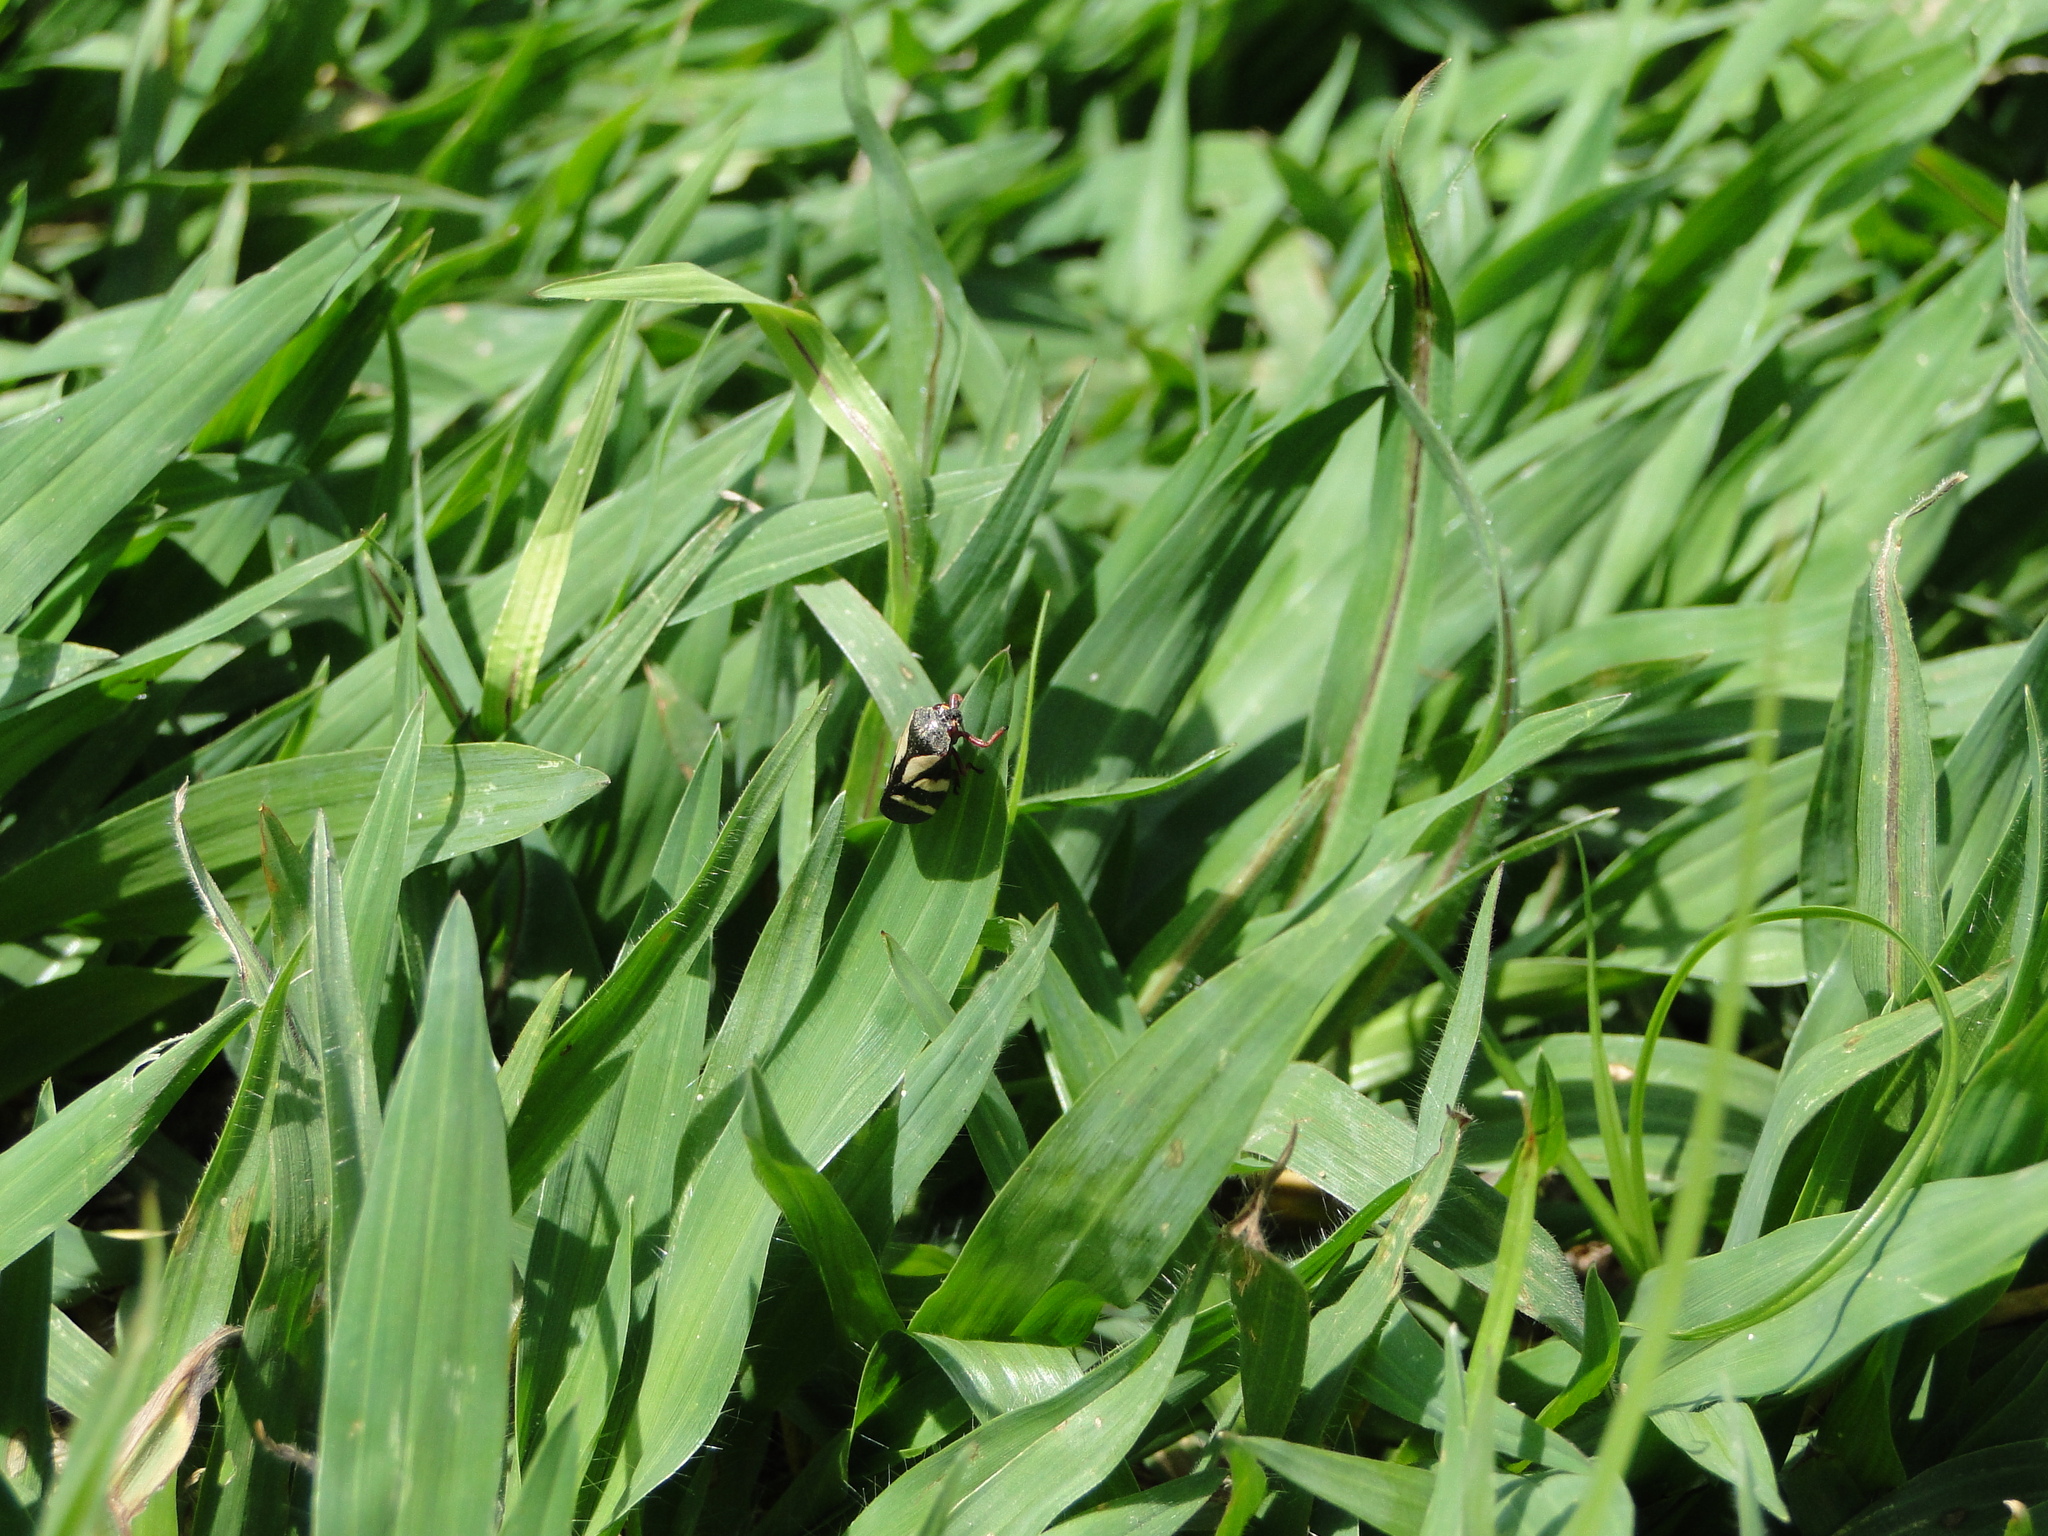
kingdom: Animalia
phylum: Arthropoda
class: Insecta
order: Hemiptera
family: Cercopidae
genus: Deois
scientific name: Deois flavopicta
